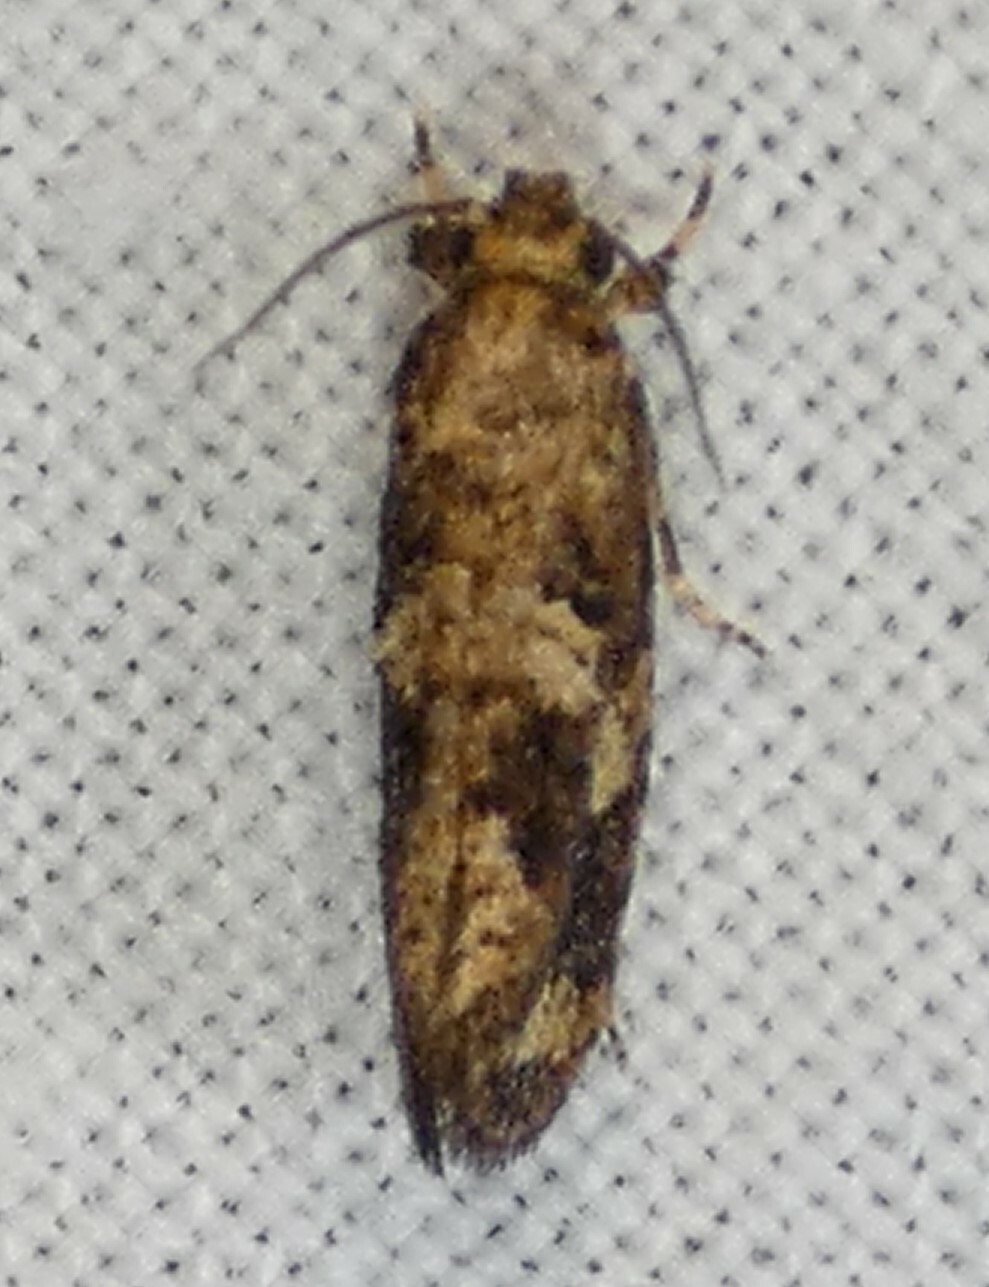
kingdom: Animalia
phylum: Arthropoda
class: Insecta
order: Lepidoptera
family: Tineidae
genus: Acrolophus
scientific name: Acrolophus cressoni
